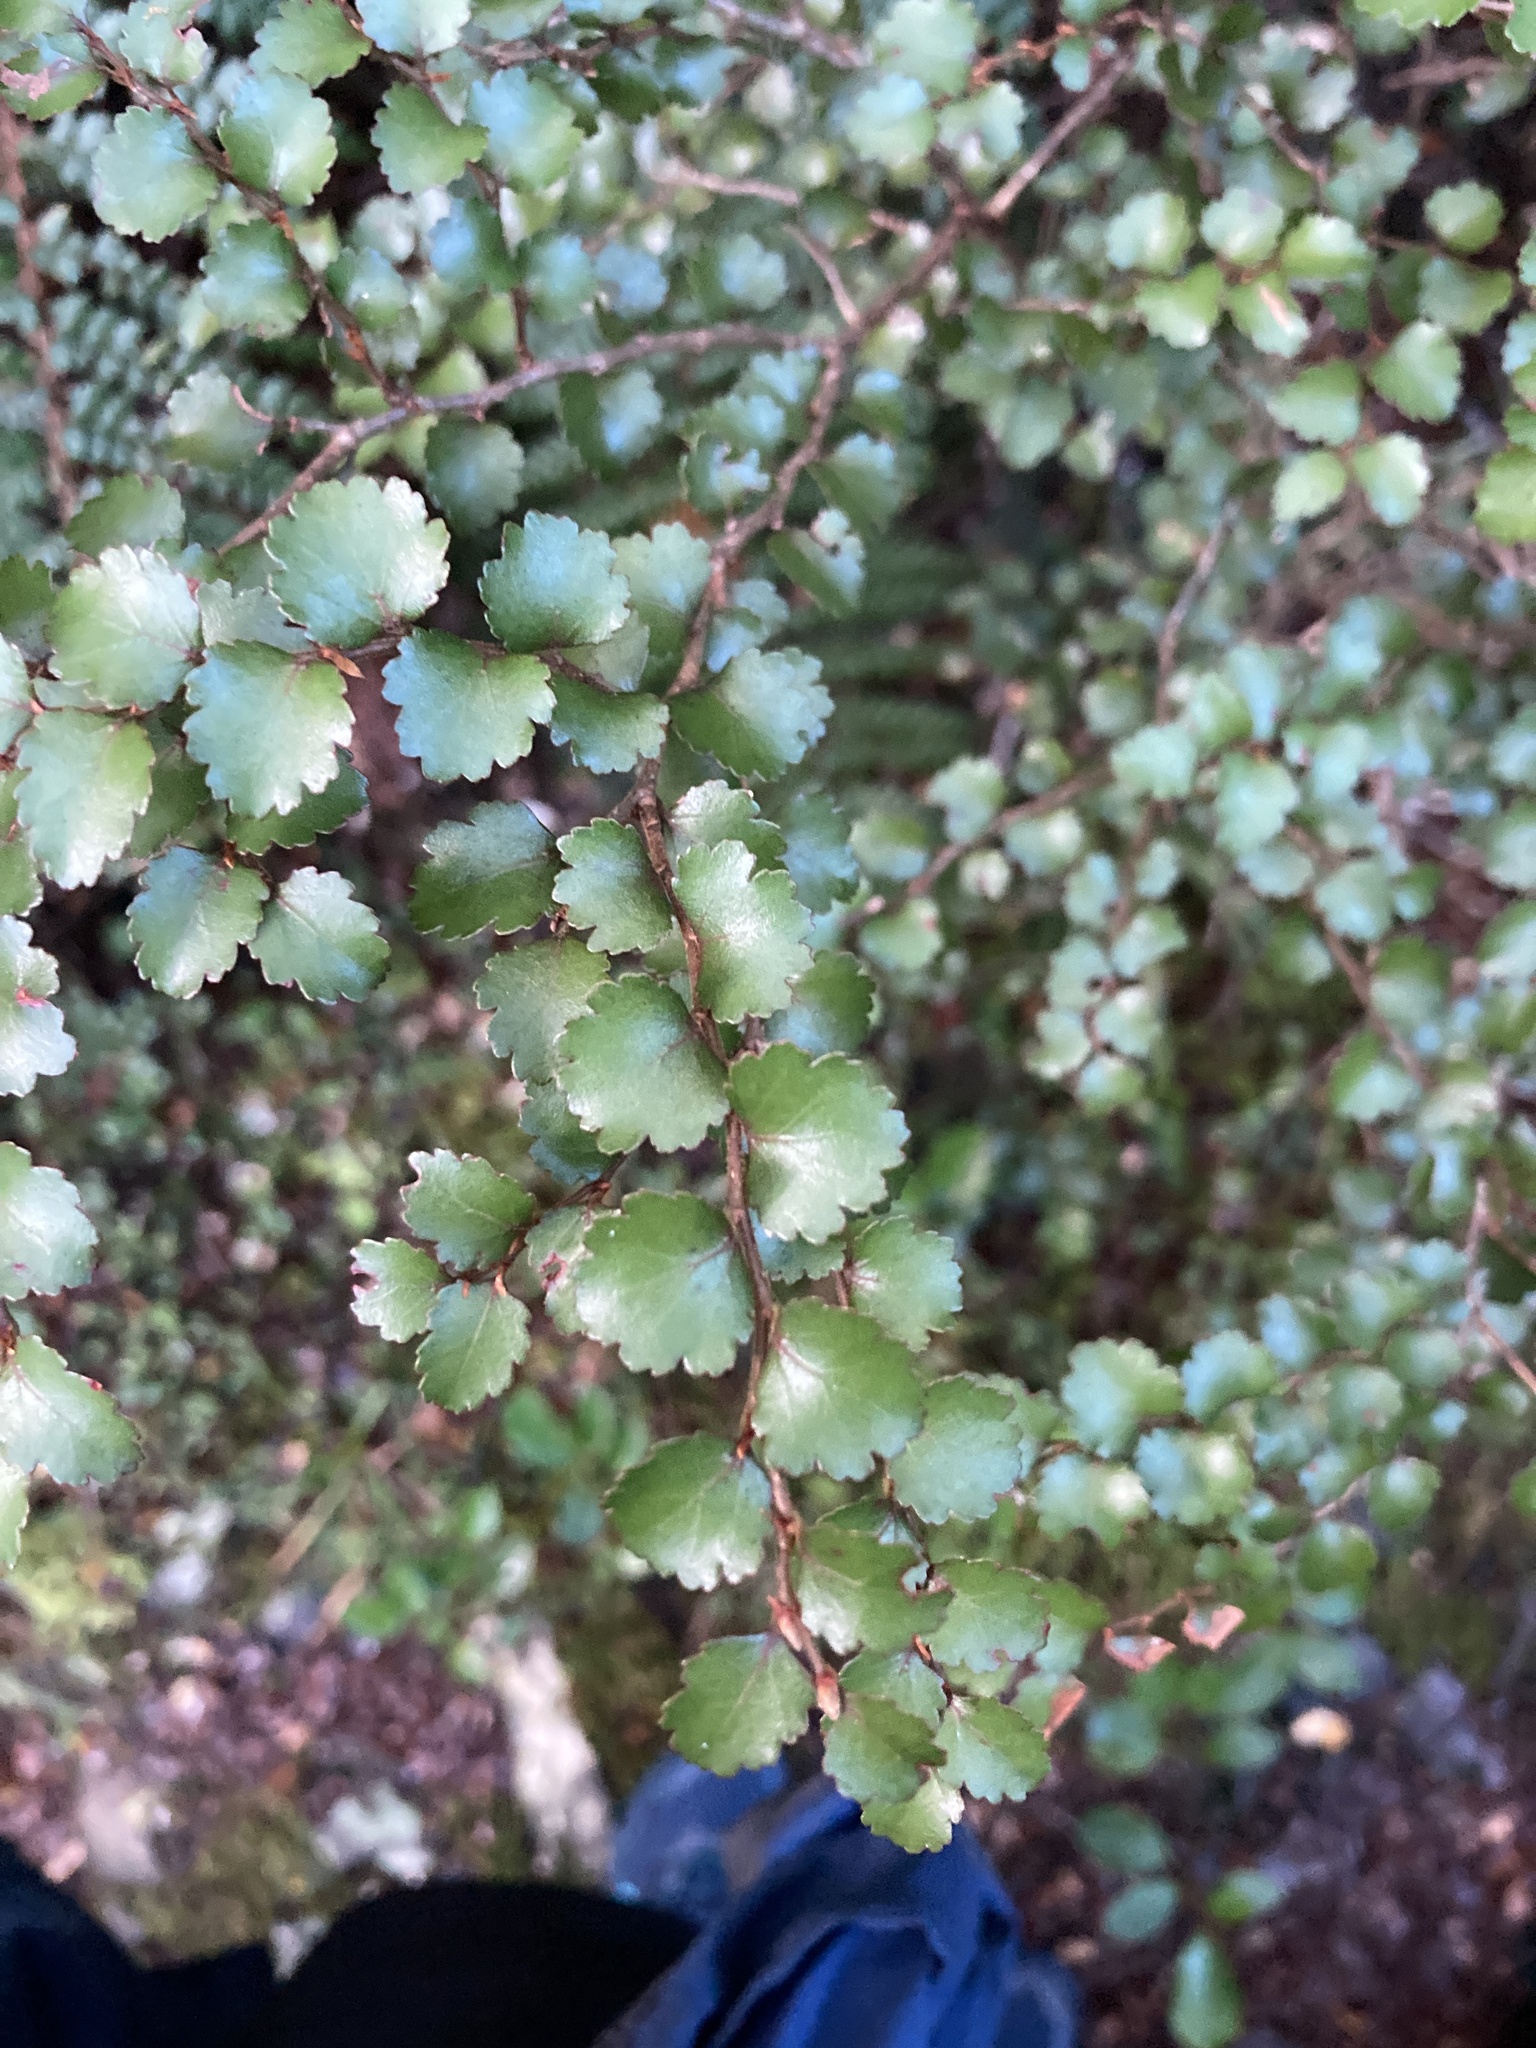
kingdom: Plantae
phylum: Tracheophyta
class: Magnoliopsida
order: Fagales
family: Nothofagaceae
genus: Nothofagus
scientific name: Nothofagus menziesii
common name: Silver beech
